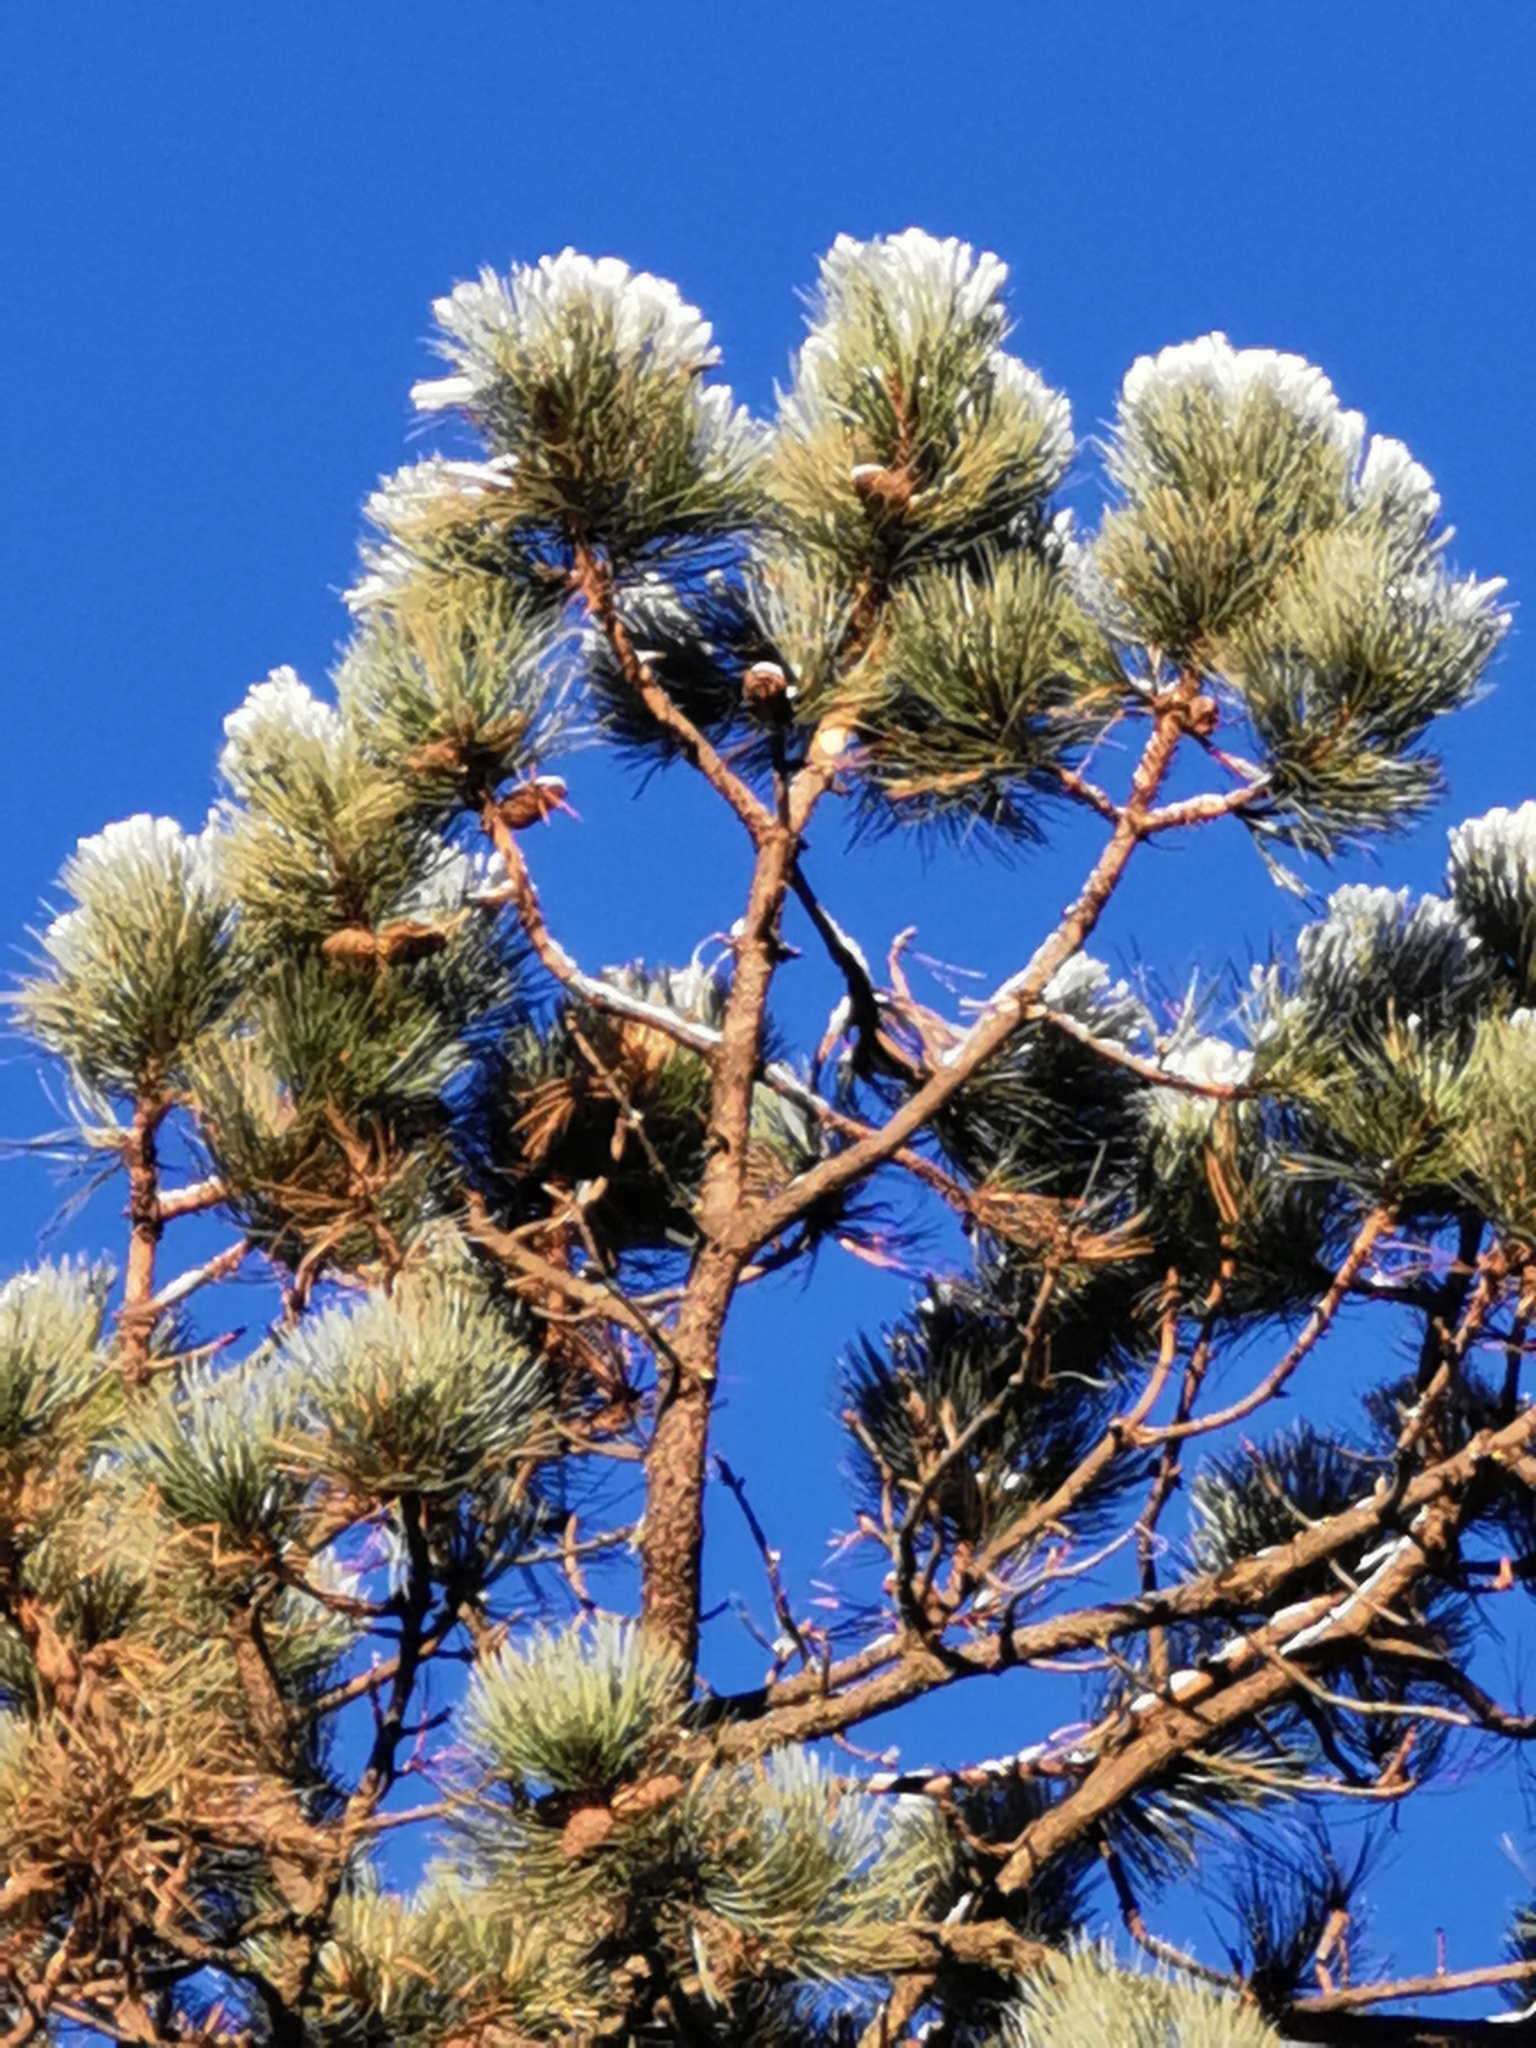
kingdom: Plantae
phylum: Tracheophyta
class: Pinopsida
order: Pinales
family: Pinaceae
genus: Pinus
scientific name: Pinus arizonica
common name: Arizona pine
